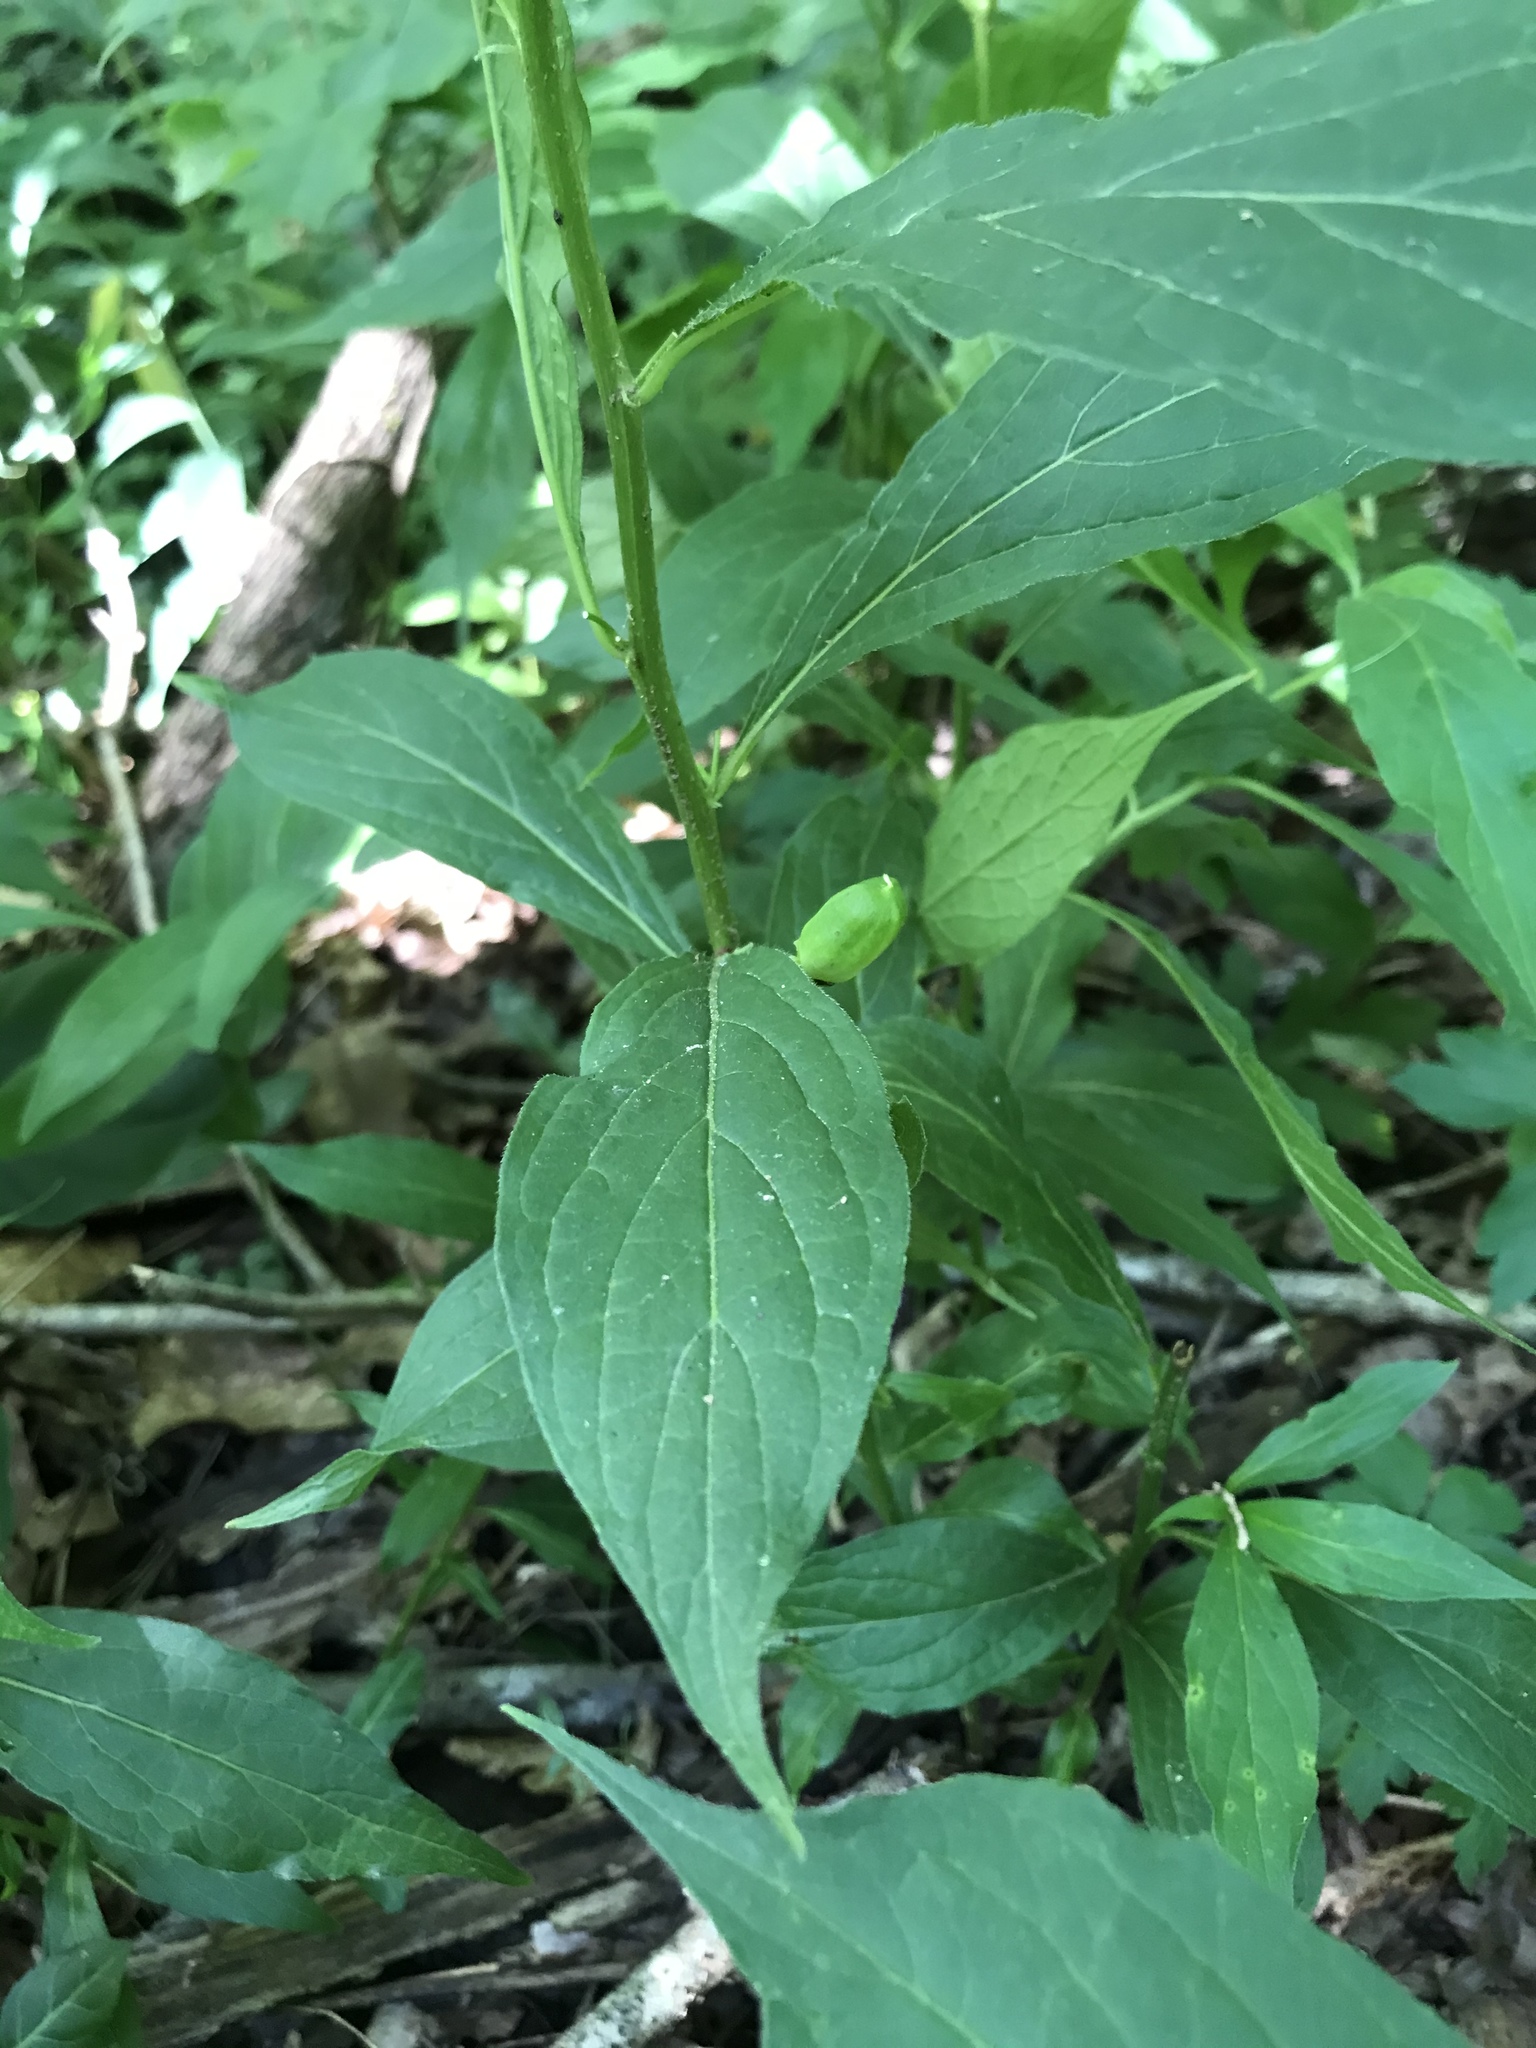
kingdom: Plantae
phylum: Tracheophyta
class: Magnoliopsida
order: Malpighiales
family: Violaceae
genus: Cubelium
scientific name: Cubelium concolor
